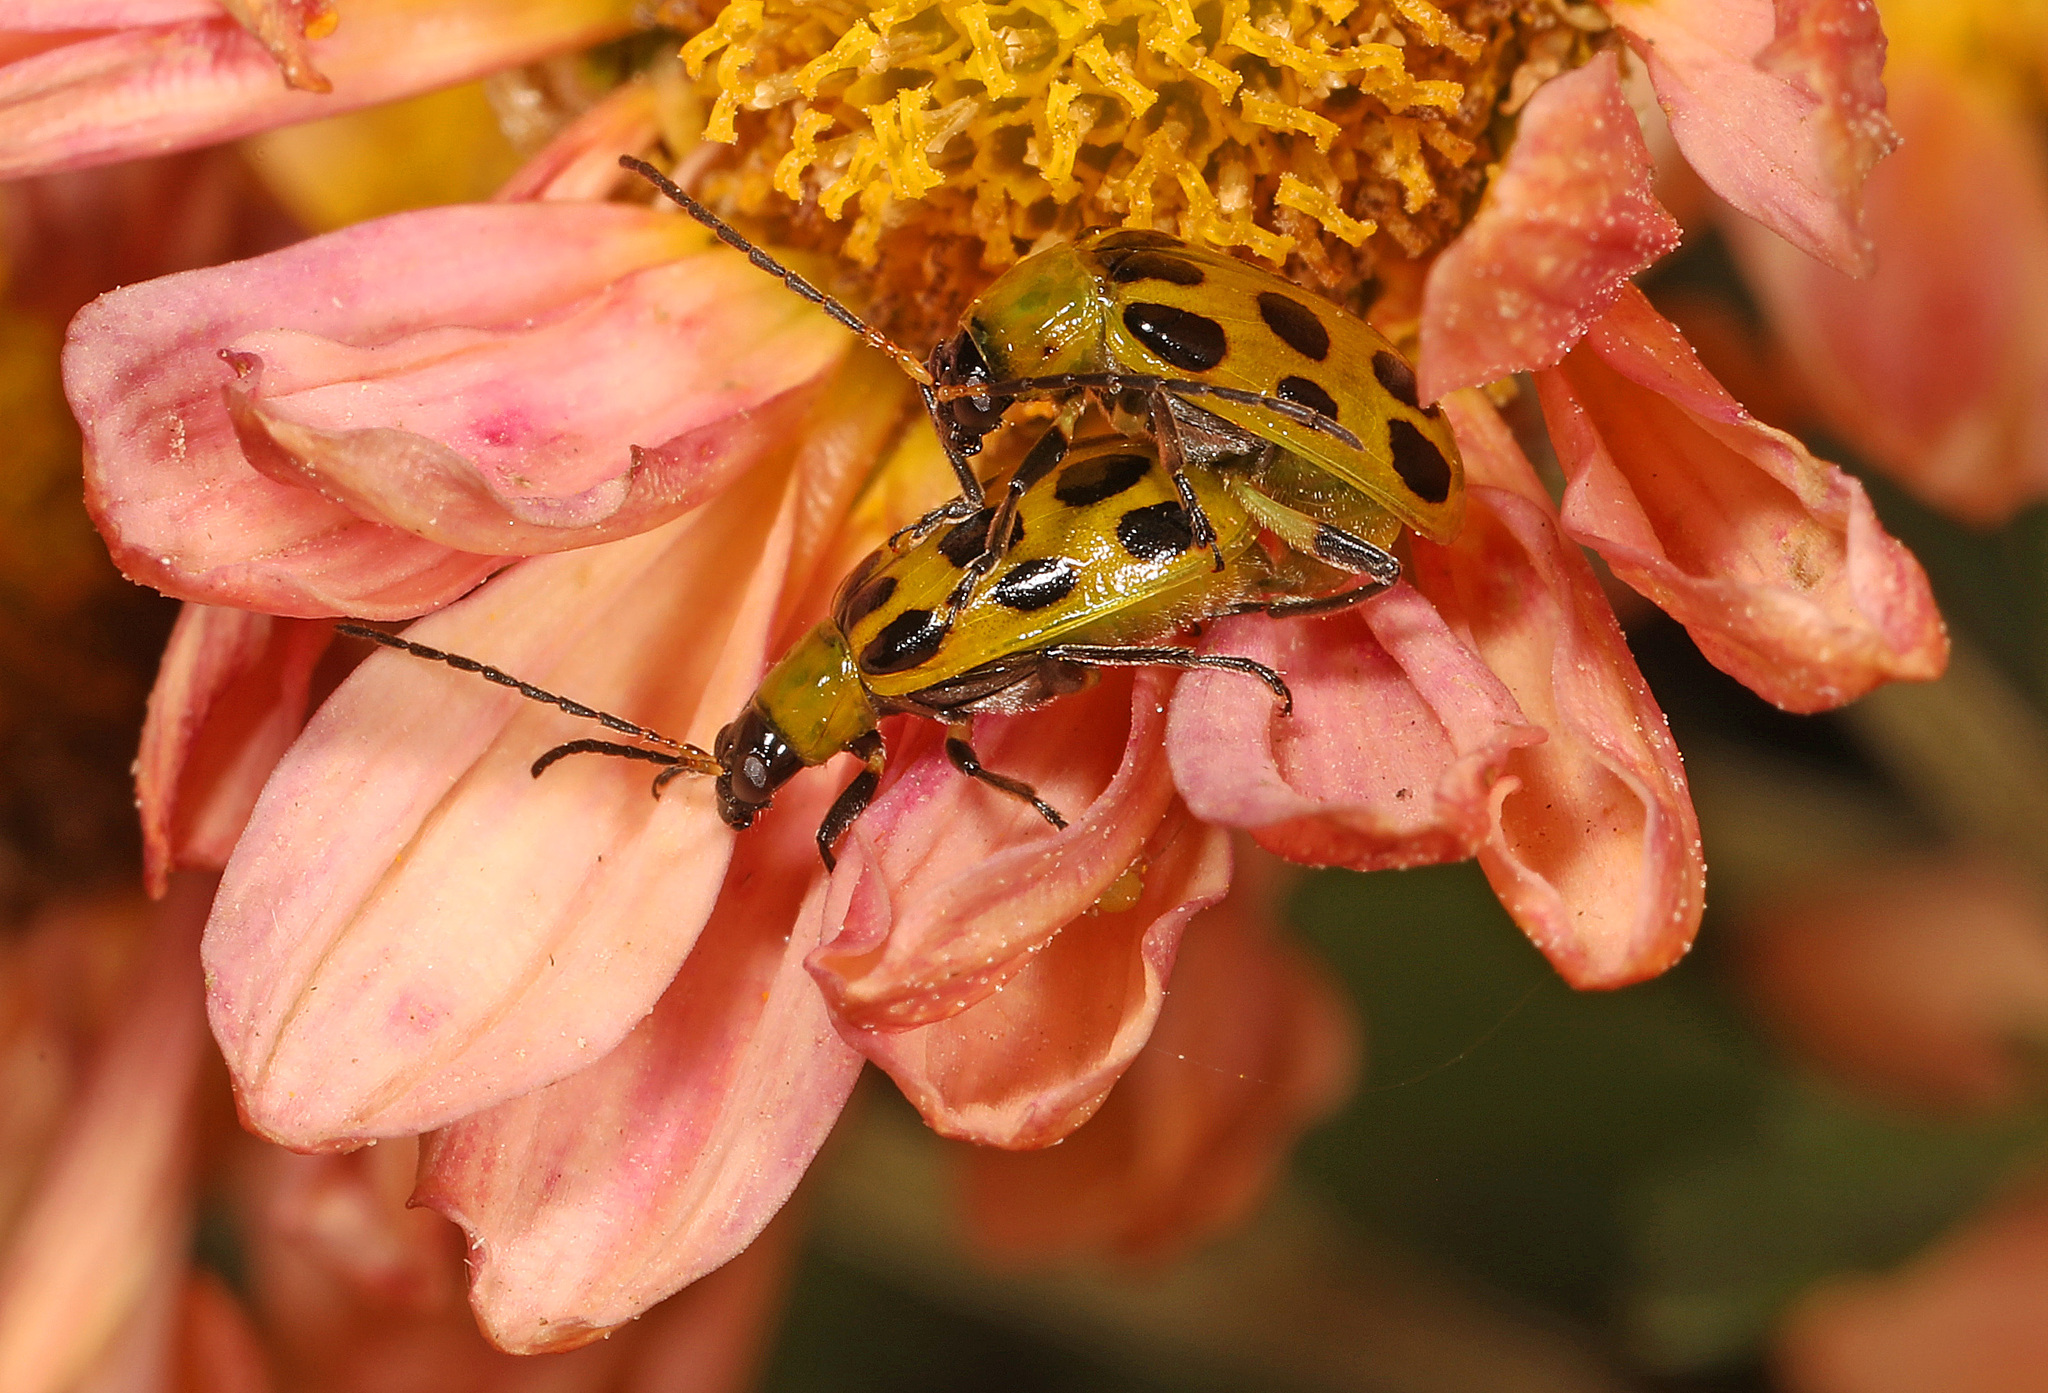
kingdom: Animalia
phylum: Arthropoda
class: Insecta
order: Coleoptera
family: Chrysomelidae
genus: Diabrotica
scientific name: Diabrotica undecimpunctata
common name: Spotted cucumber beetle
